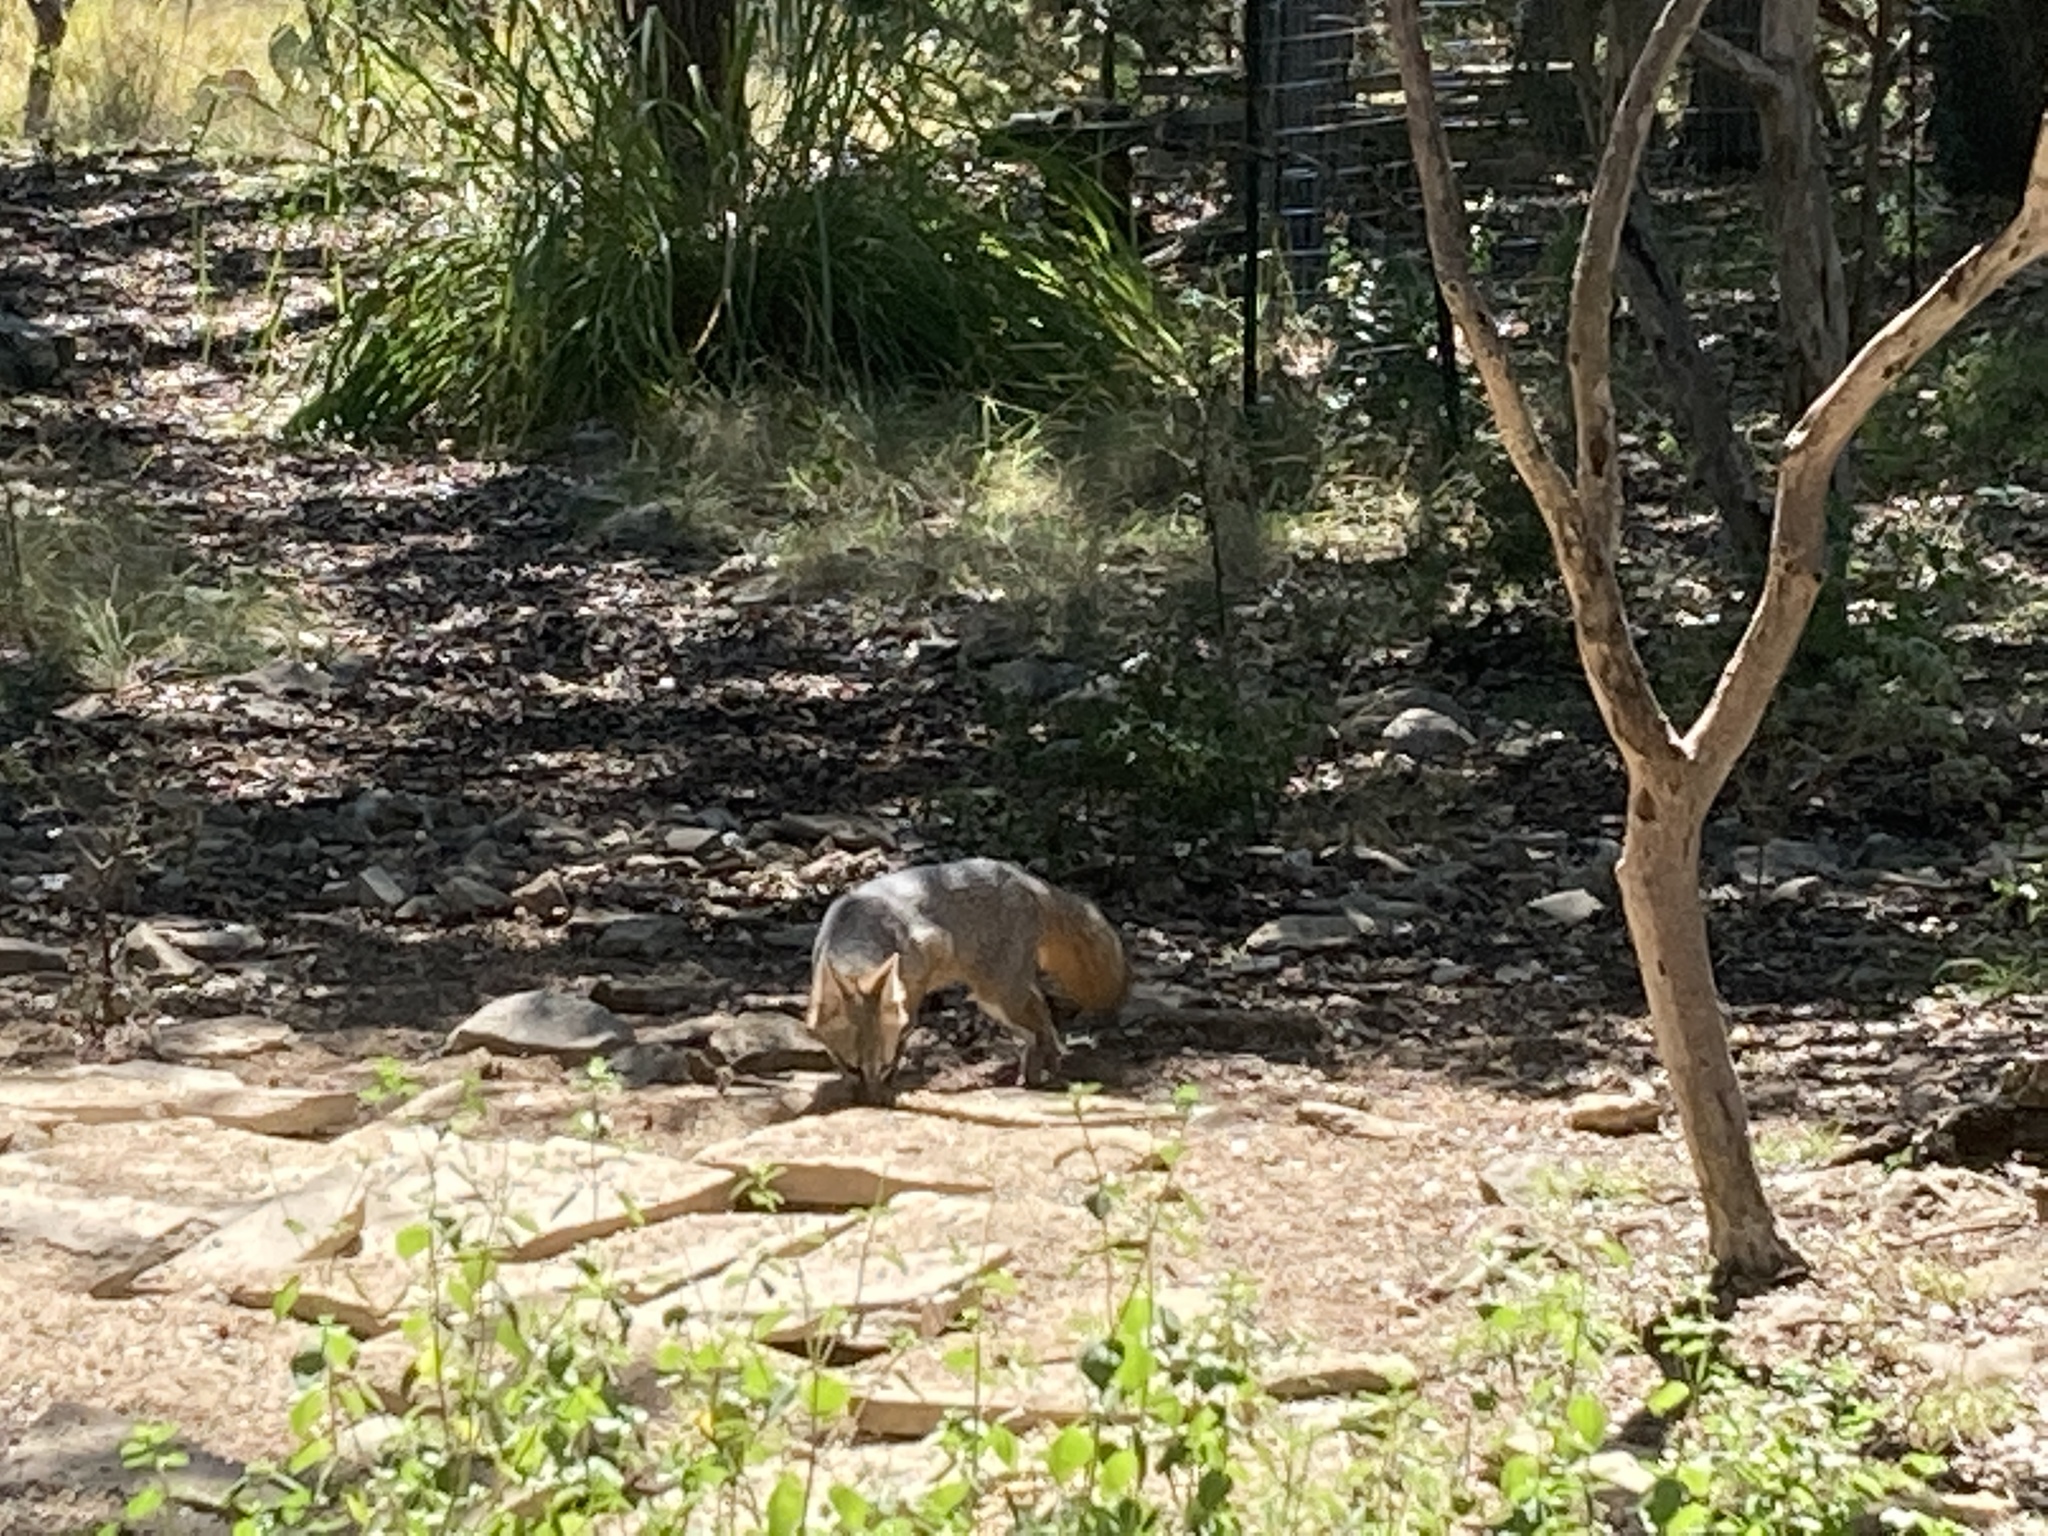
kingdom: Animalia
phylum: Chordata
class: Mammalia
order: Carnivora
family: Canidae
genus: Urocyon
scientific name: Urocyon cinereoargenteus
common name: Gray fox
